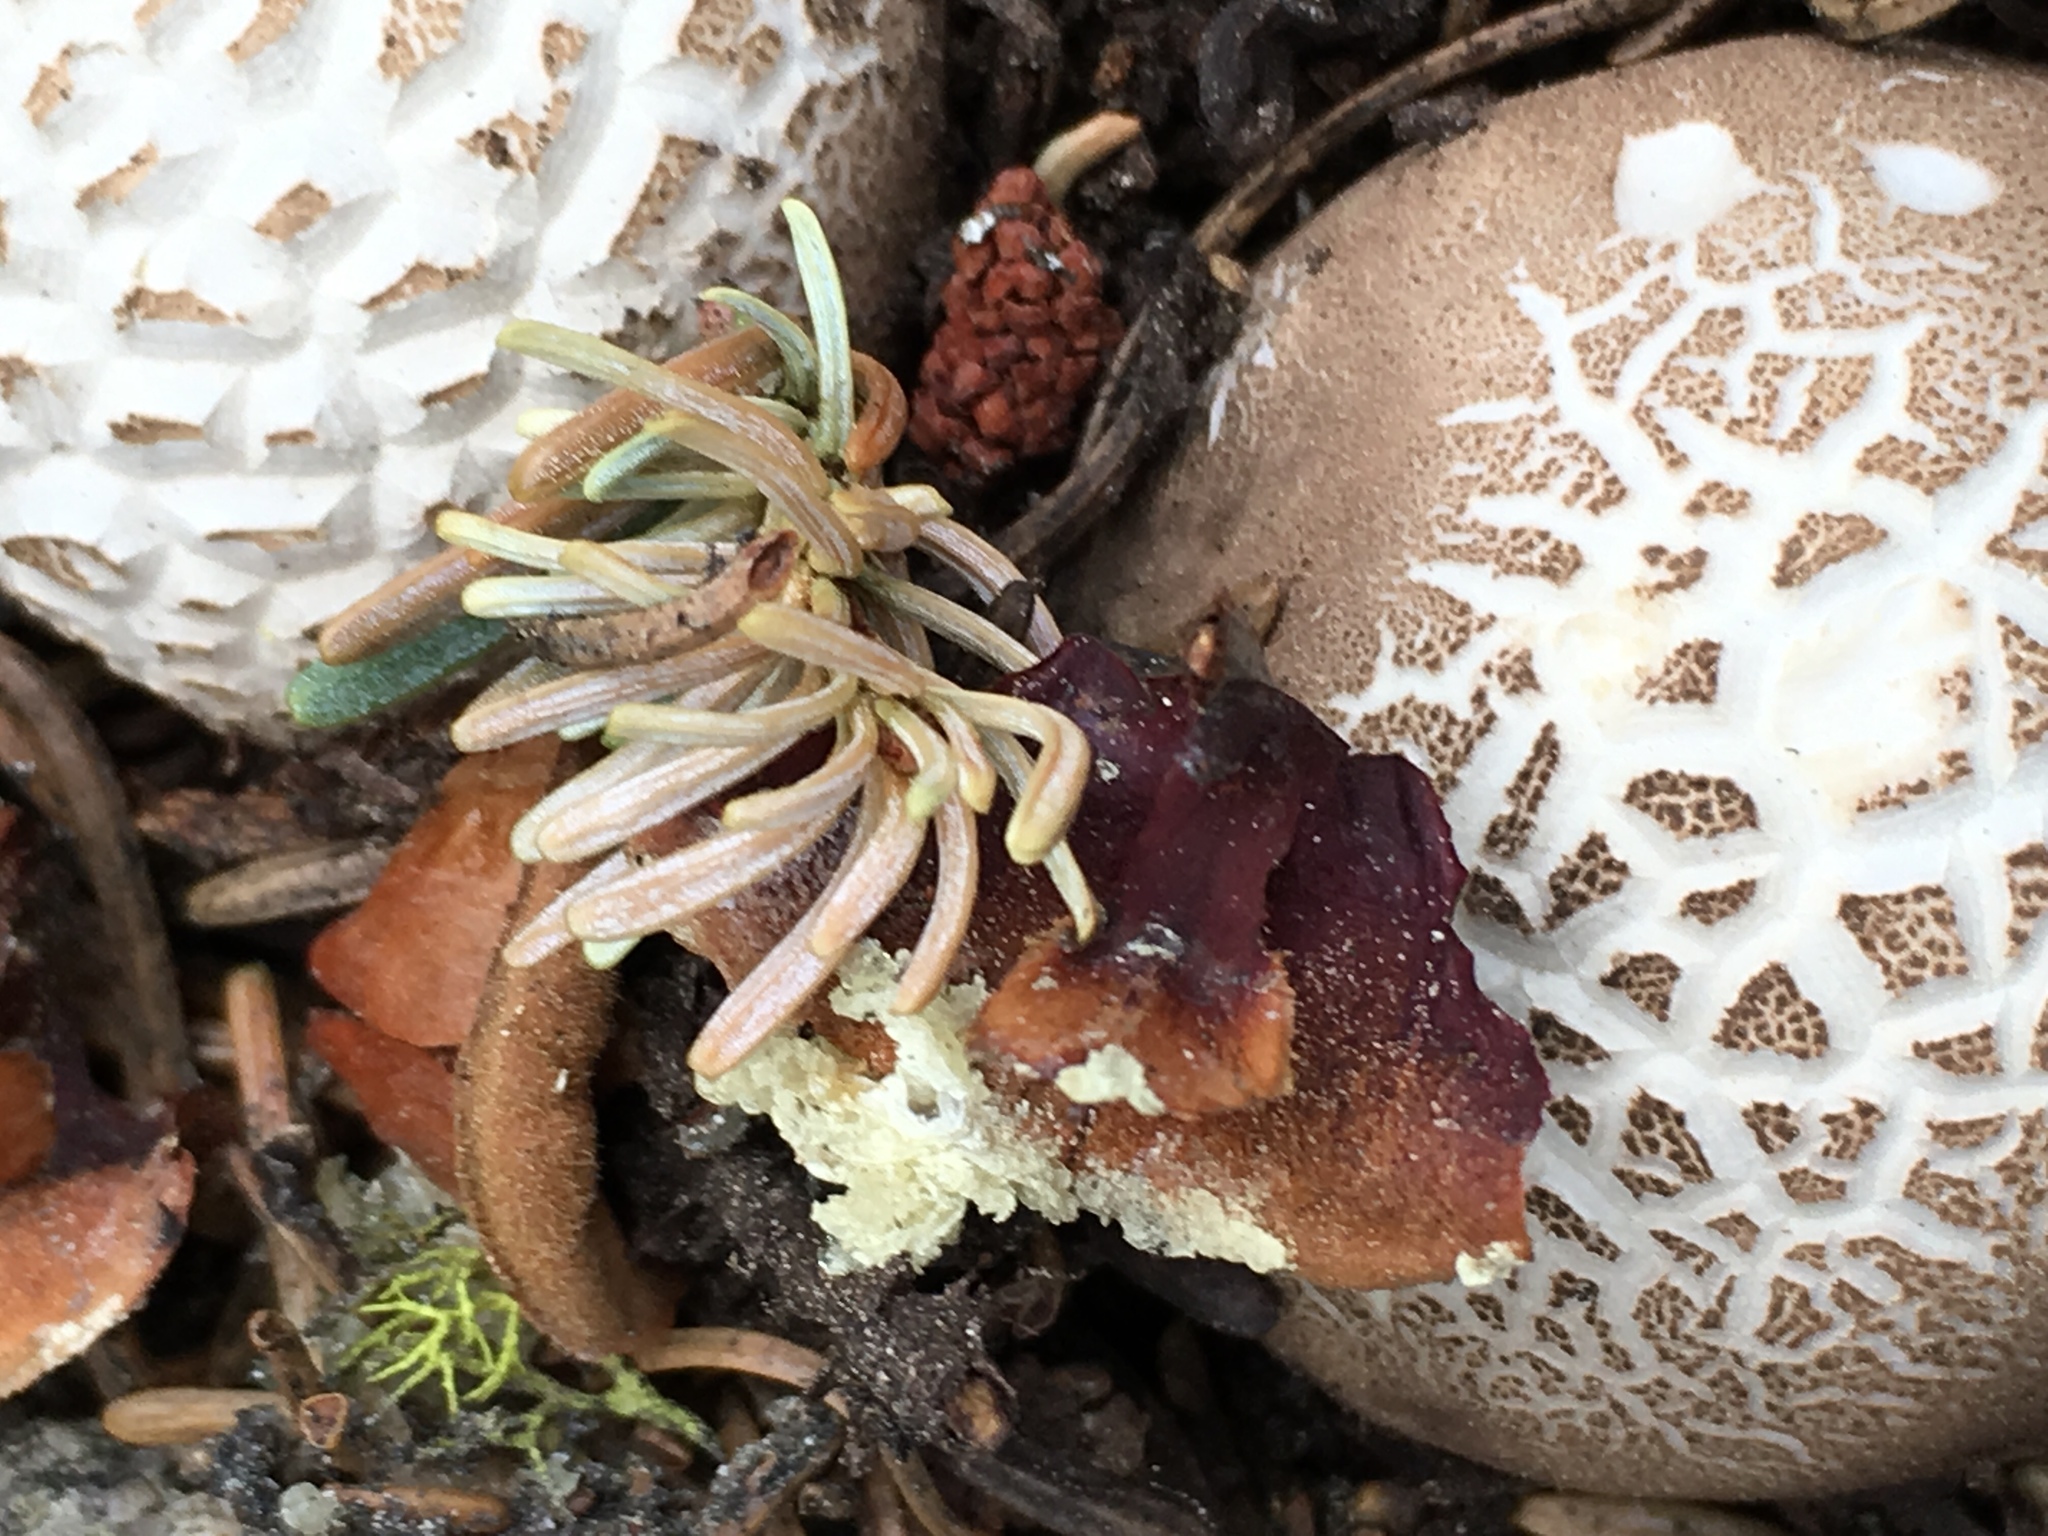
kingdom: Fungi
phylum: Basidiomycota
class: Agaricomycetes
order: Agaricales
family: Lycoperdaceae
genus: Gastropila
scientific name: Gastropila fumosa
